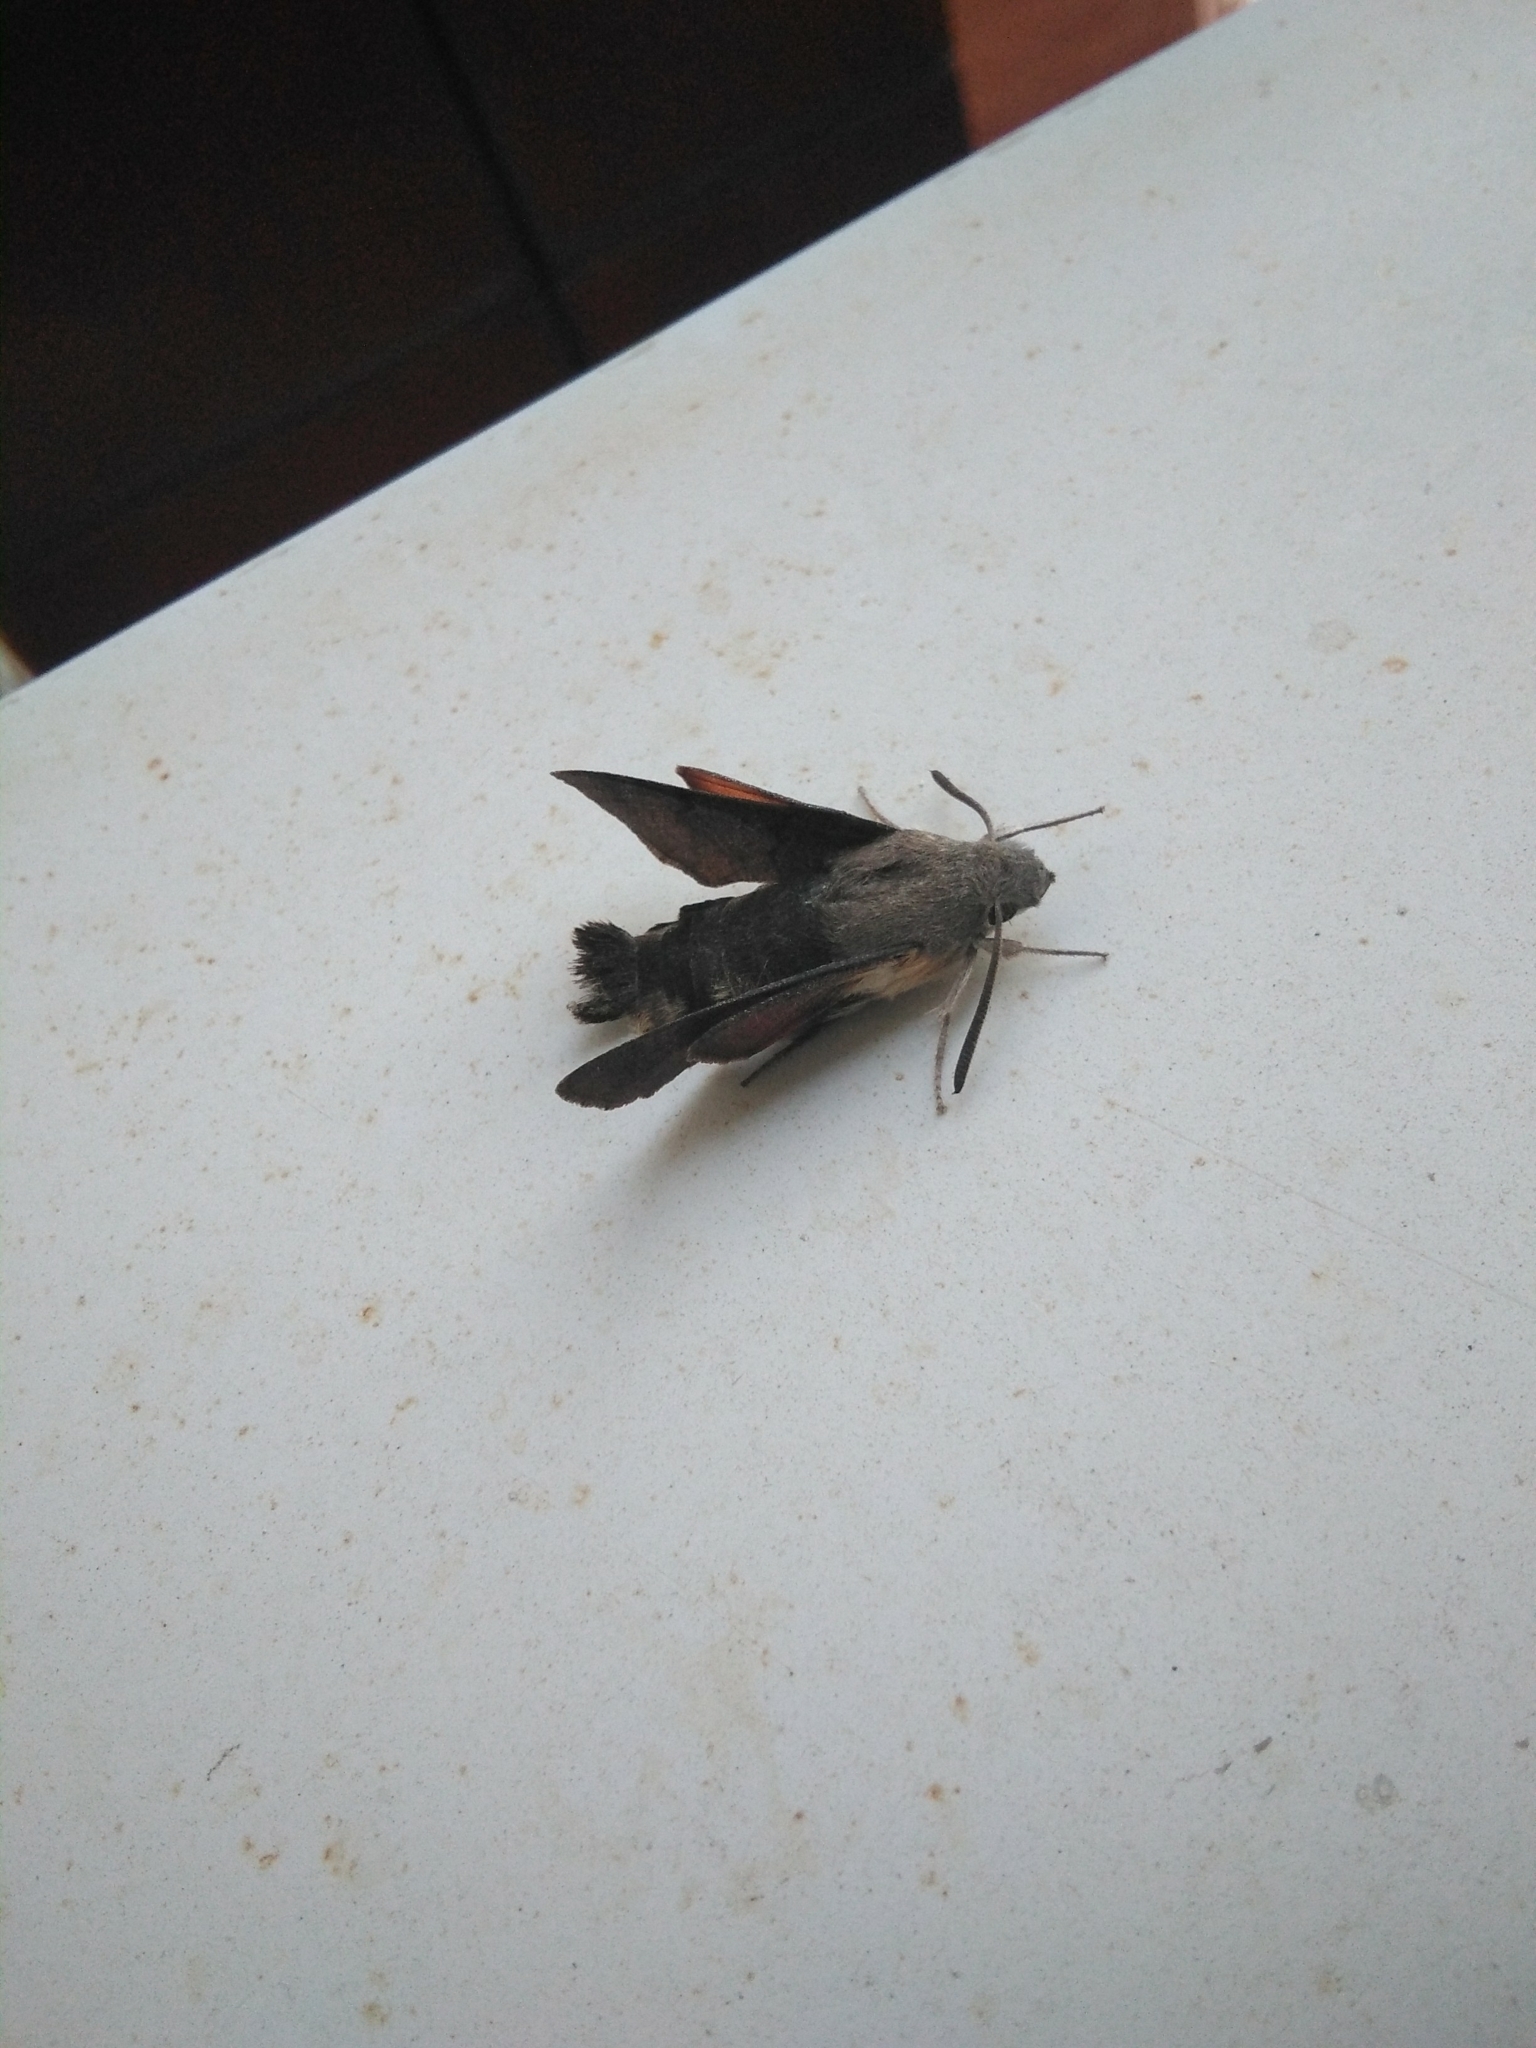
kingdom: Animalia
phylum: Arthropoda
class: Insecta
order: Lepidoptera
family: Sphingidae
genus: Macroglossum
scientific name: Macroglossum stellatarum
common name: Humming-bird hawk-moth
